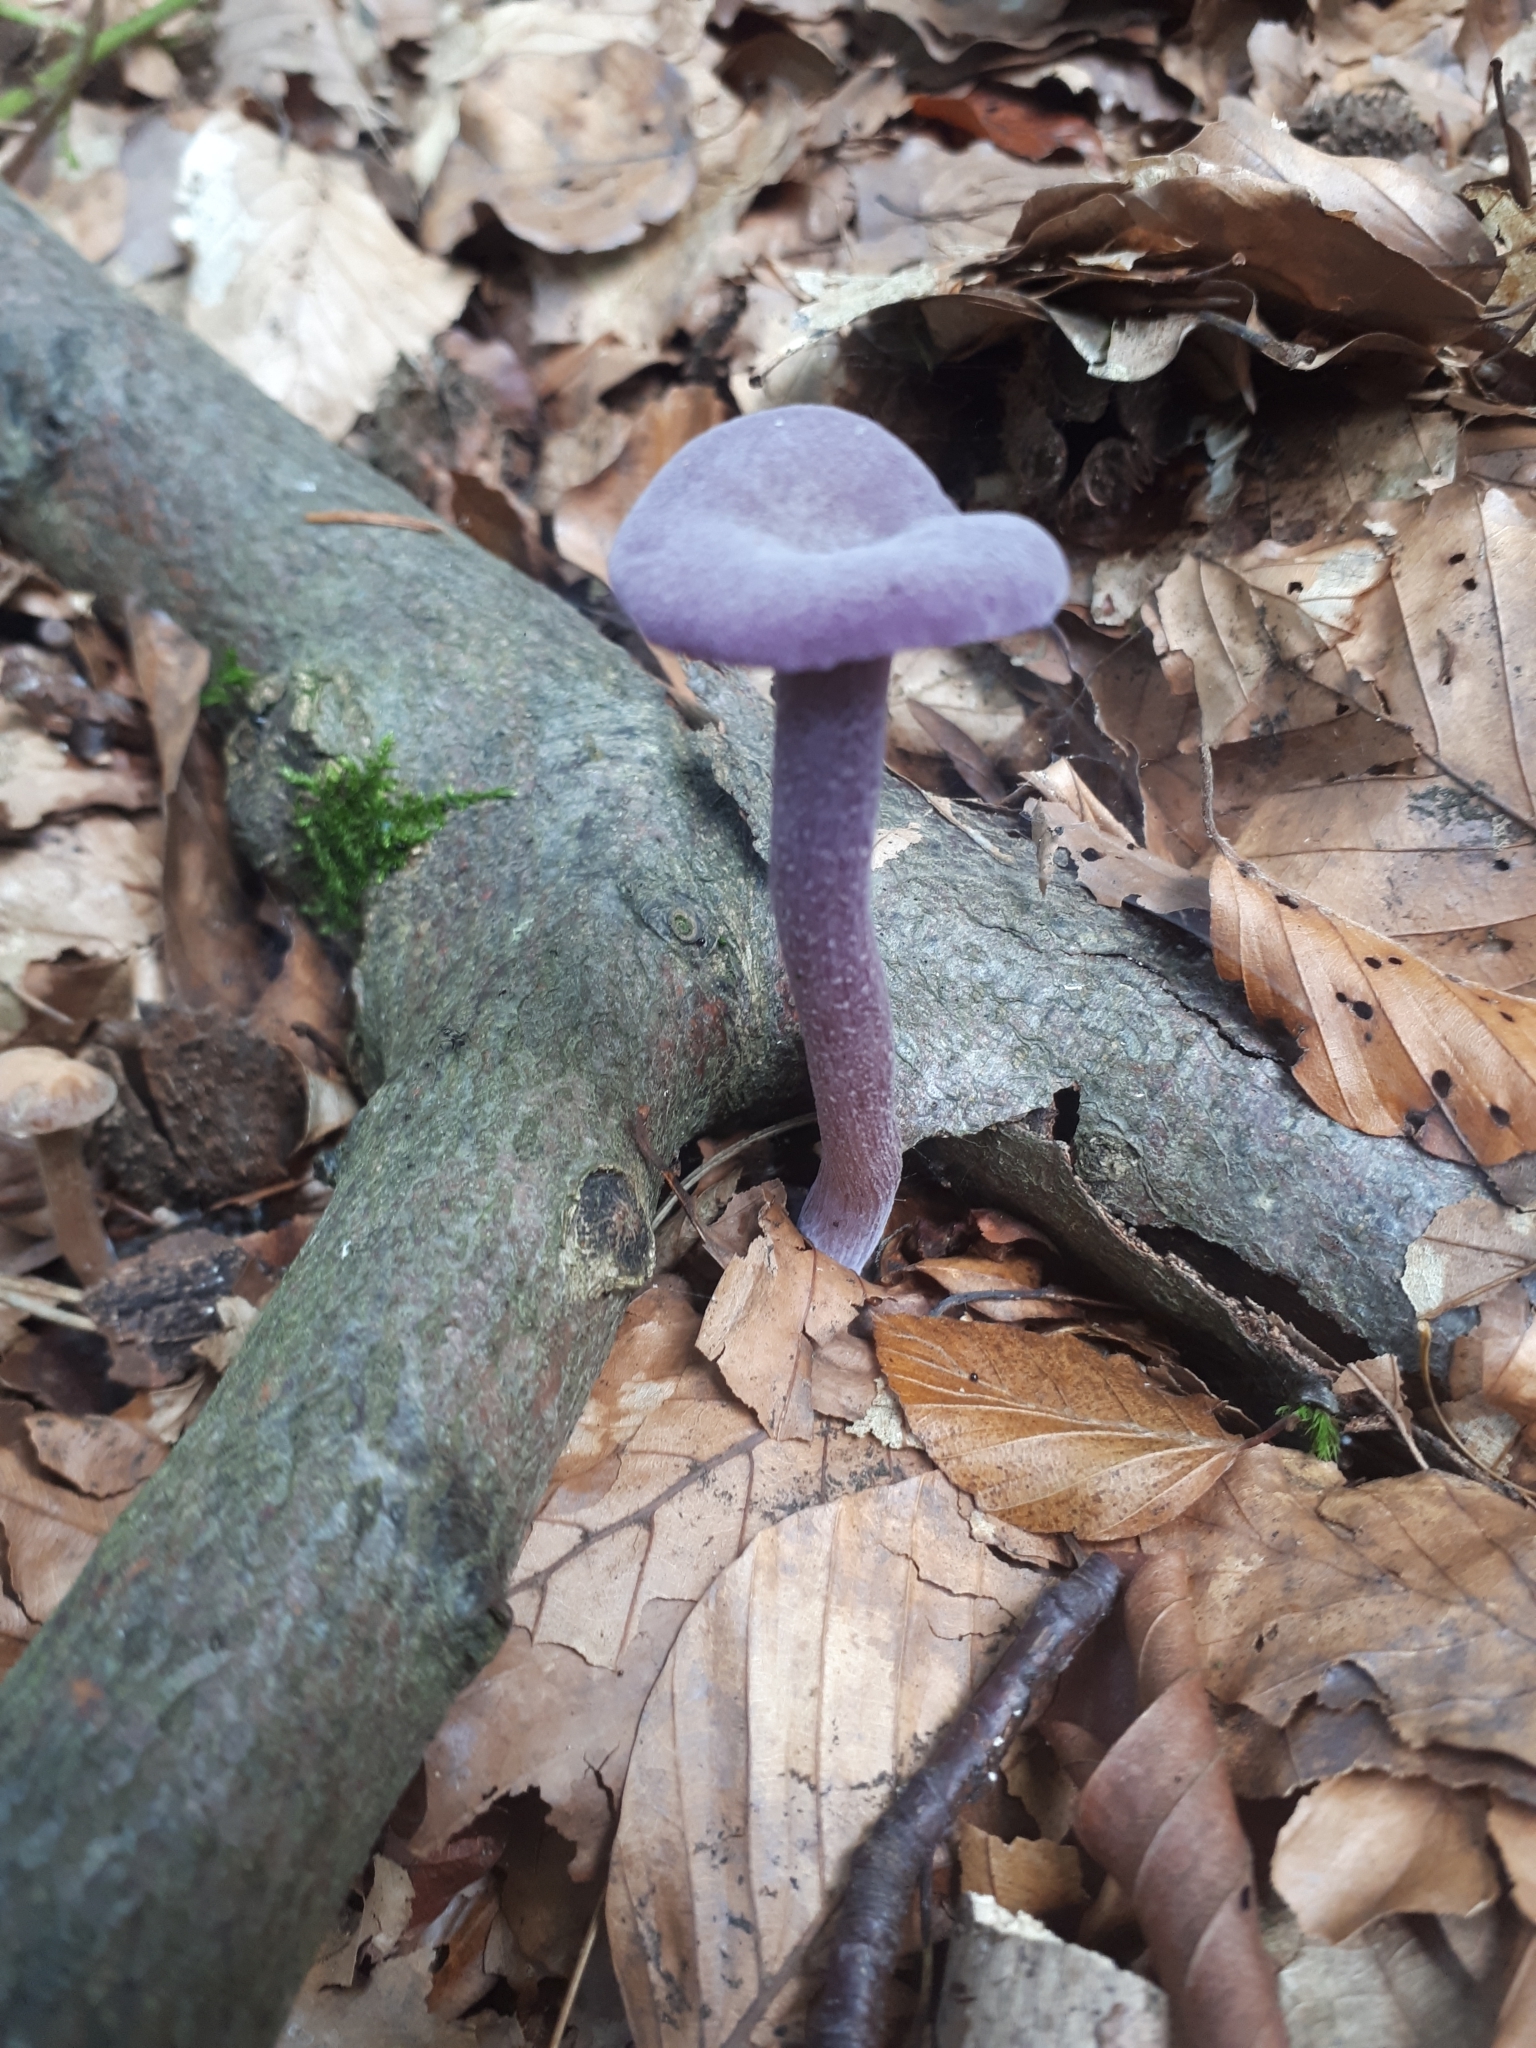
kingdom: Fungi
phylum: Basidiomycota
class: Agaricomycetes
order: Agaricales
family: Hydnangiaceae
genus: Laccaria
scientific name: Laccaria amethystina
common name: Amethyst deceiver
